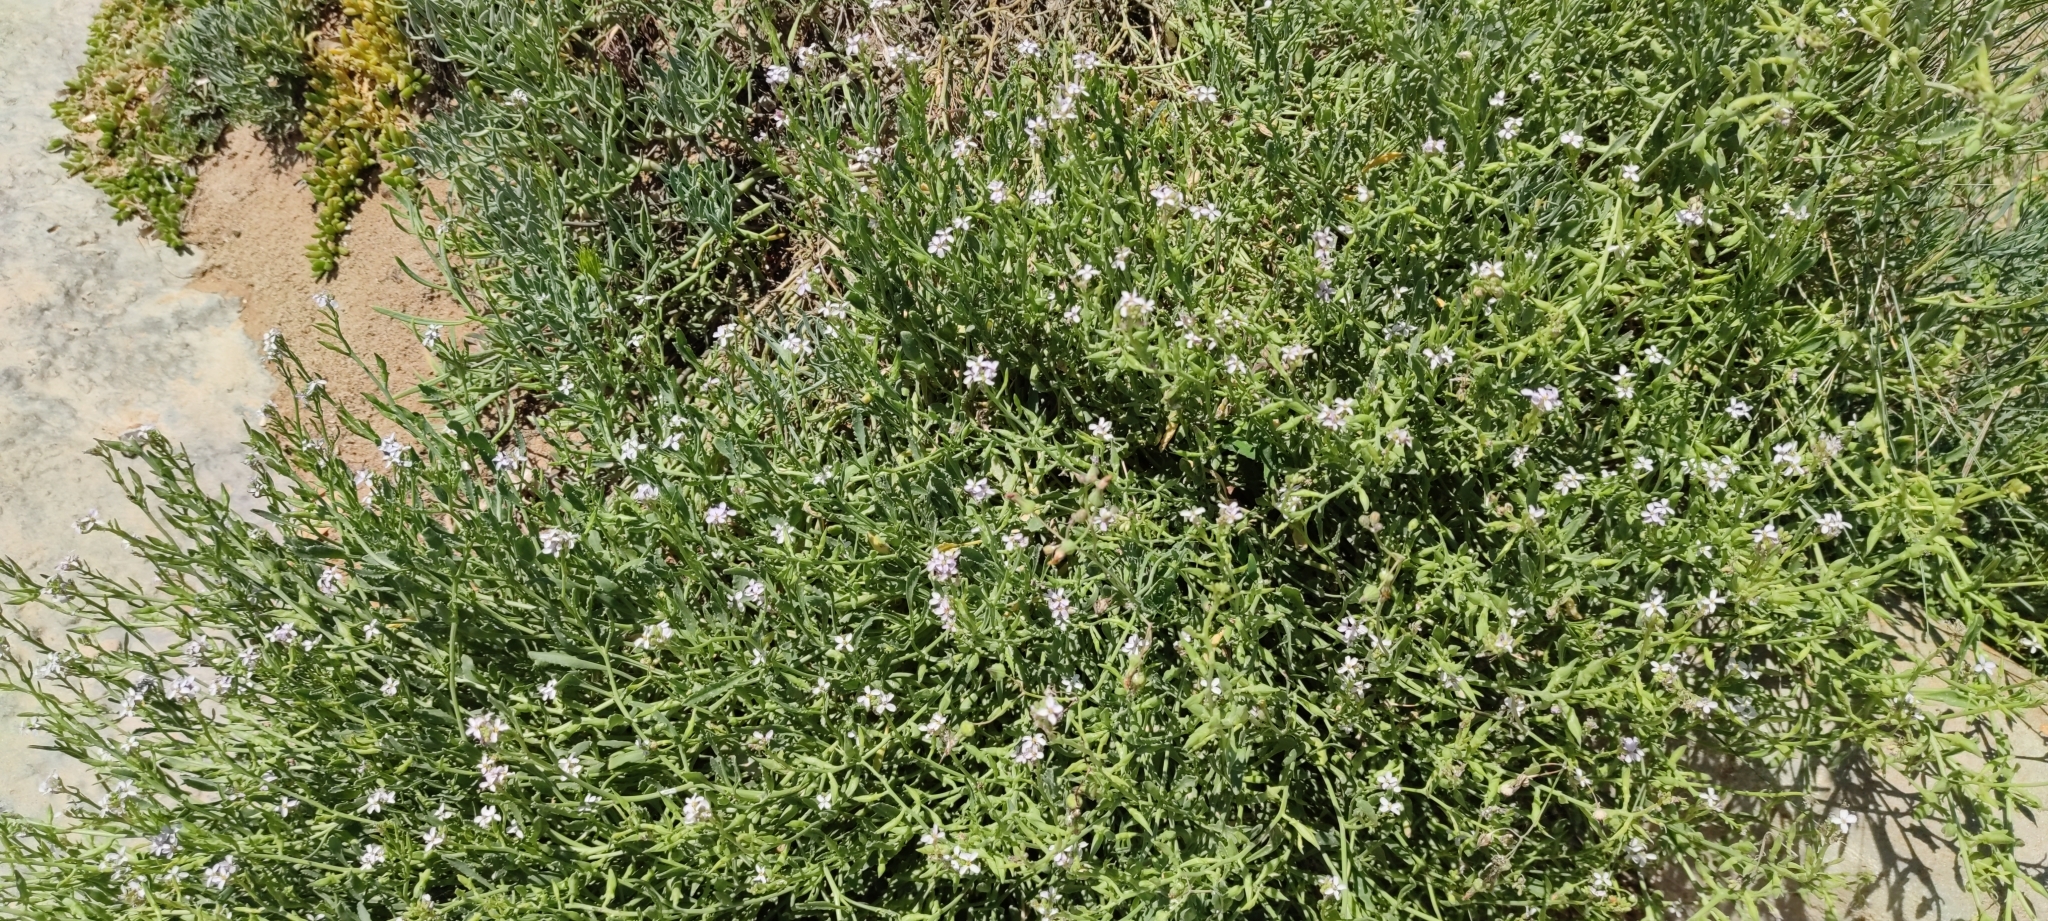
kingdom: Plantae
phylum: Tracheophyta
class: Magnoliopsida
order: Brassicales
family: Brassicaceae
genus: Cakile
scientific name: Cakile maritima
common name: Sea rocket
